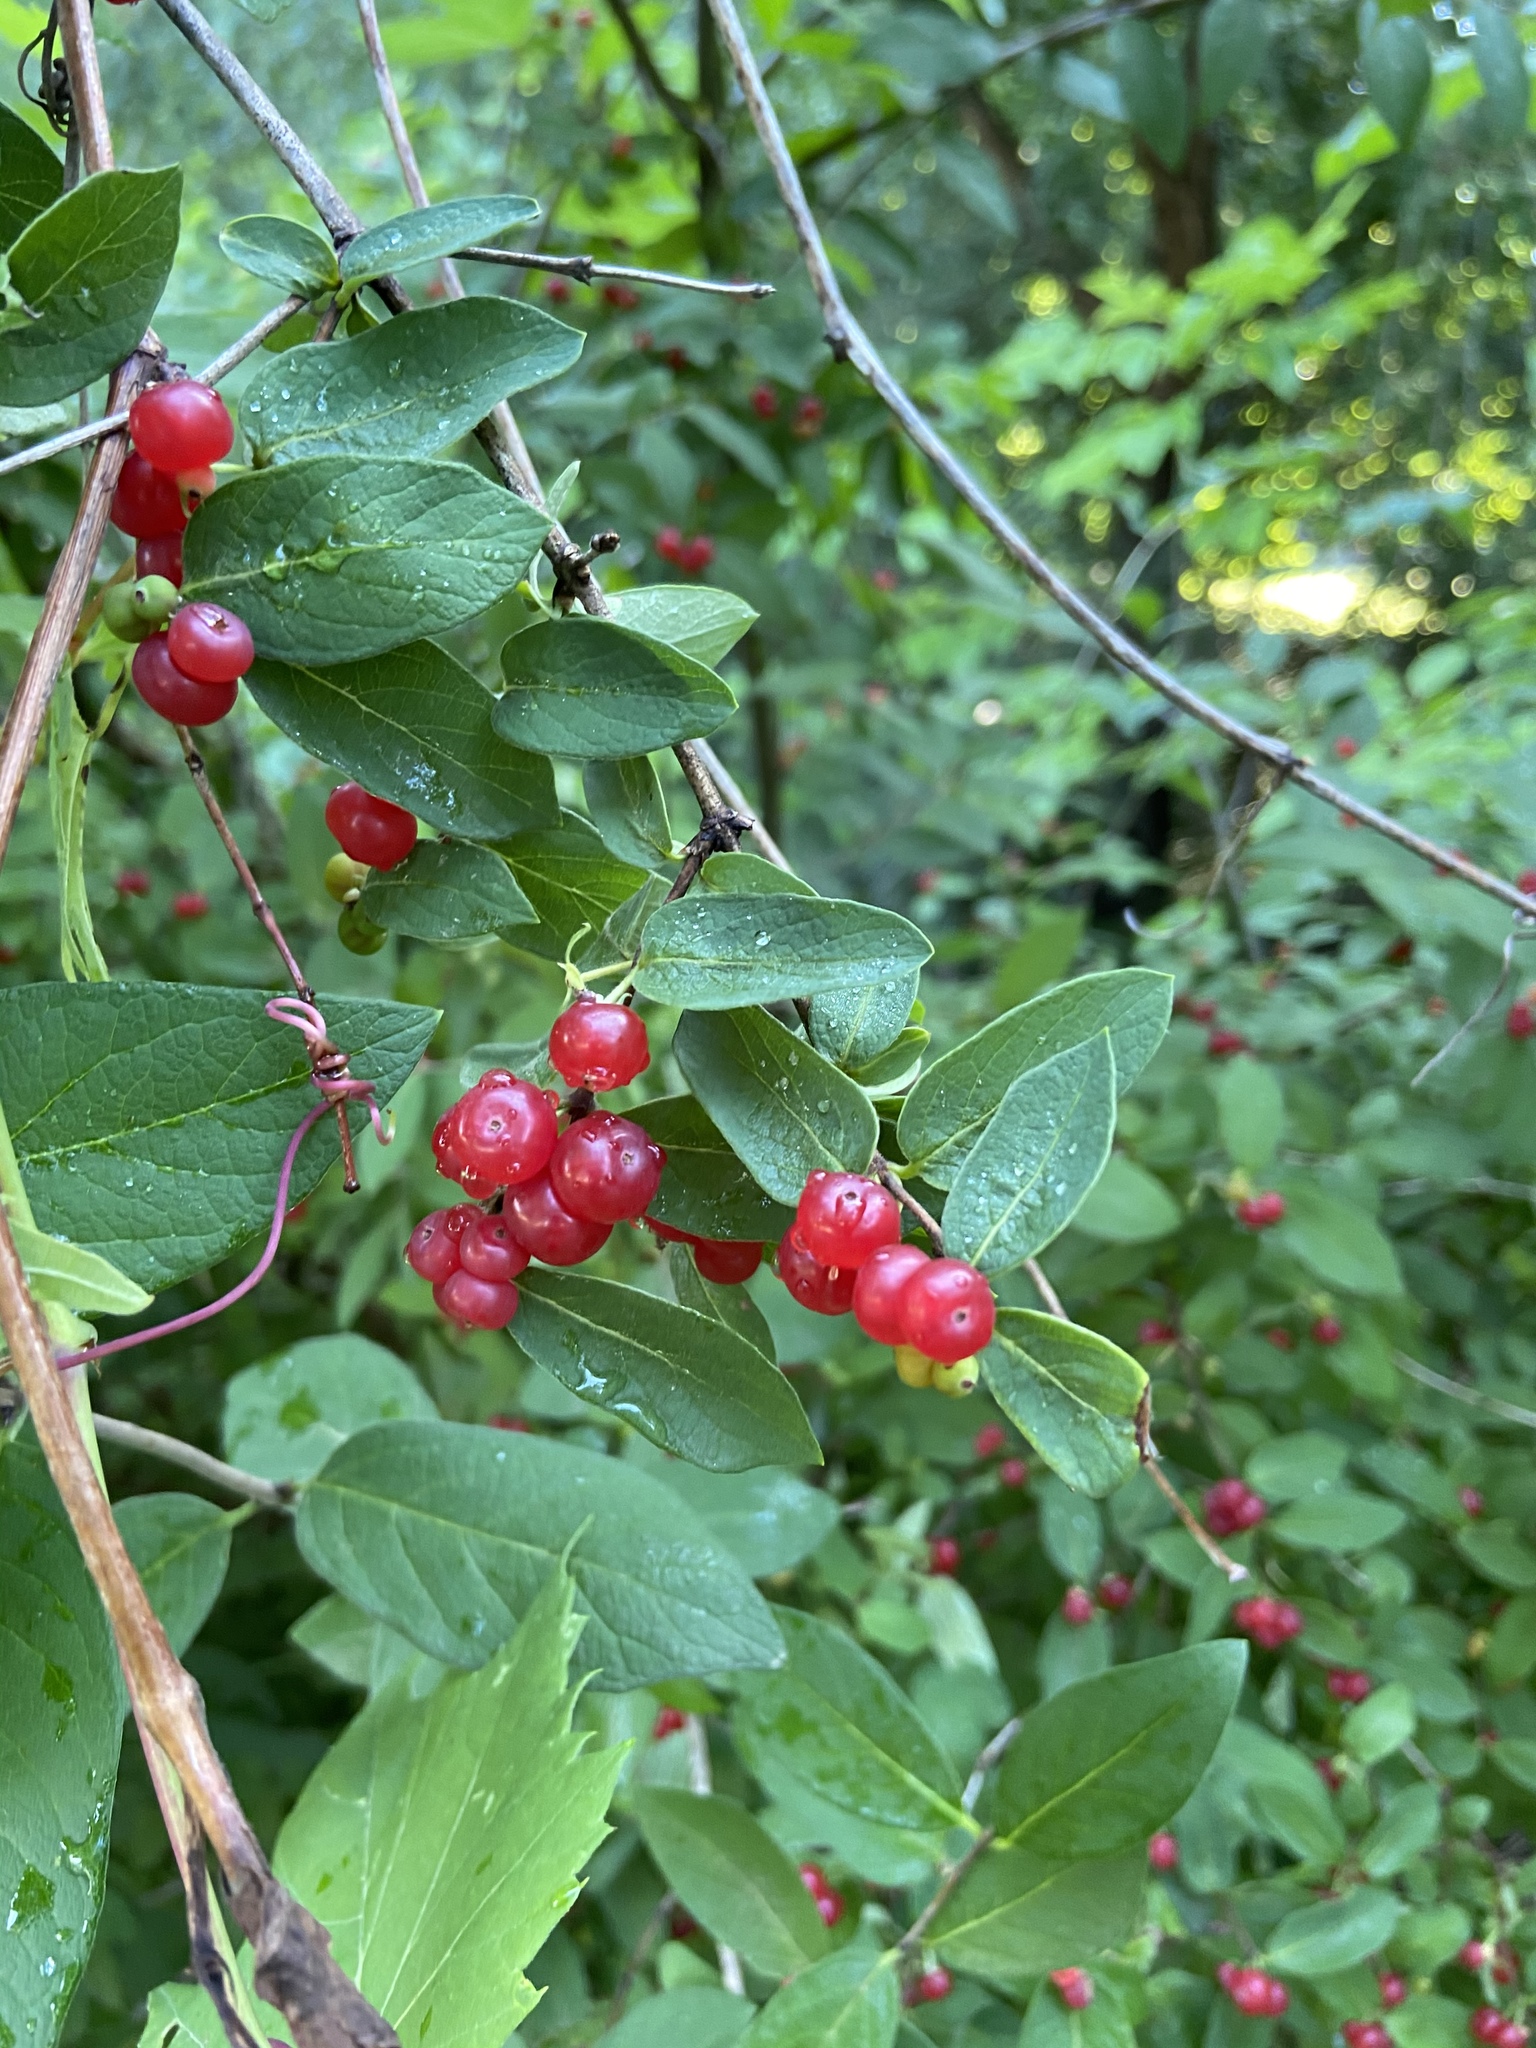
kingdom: Plantae
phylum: Tracheophyta
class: Magnoliopsida
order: Dipsacales
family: Caprifoliaceae
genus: Lonicera
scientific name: Lonicera
